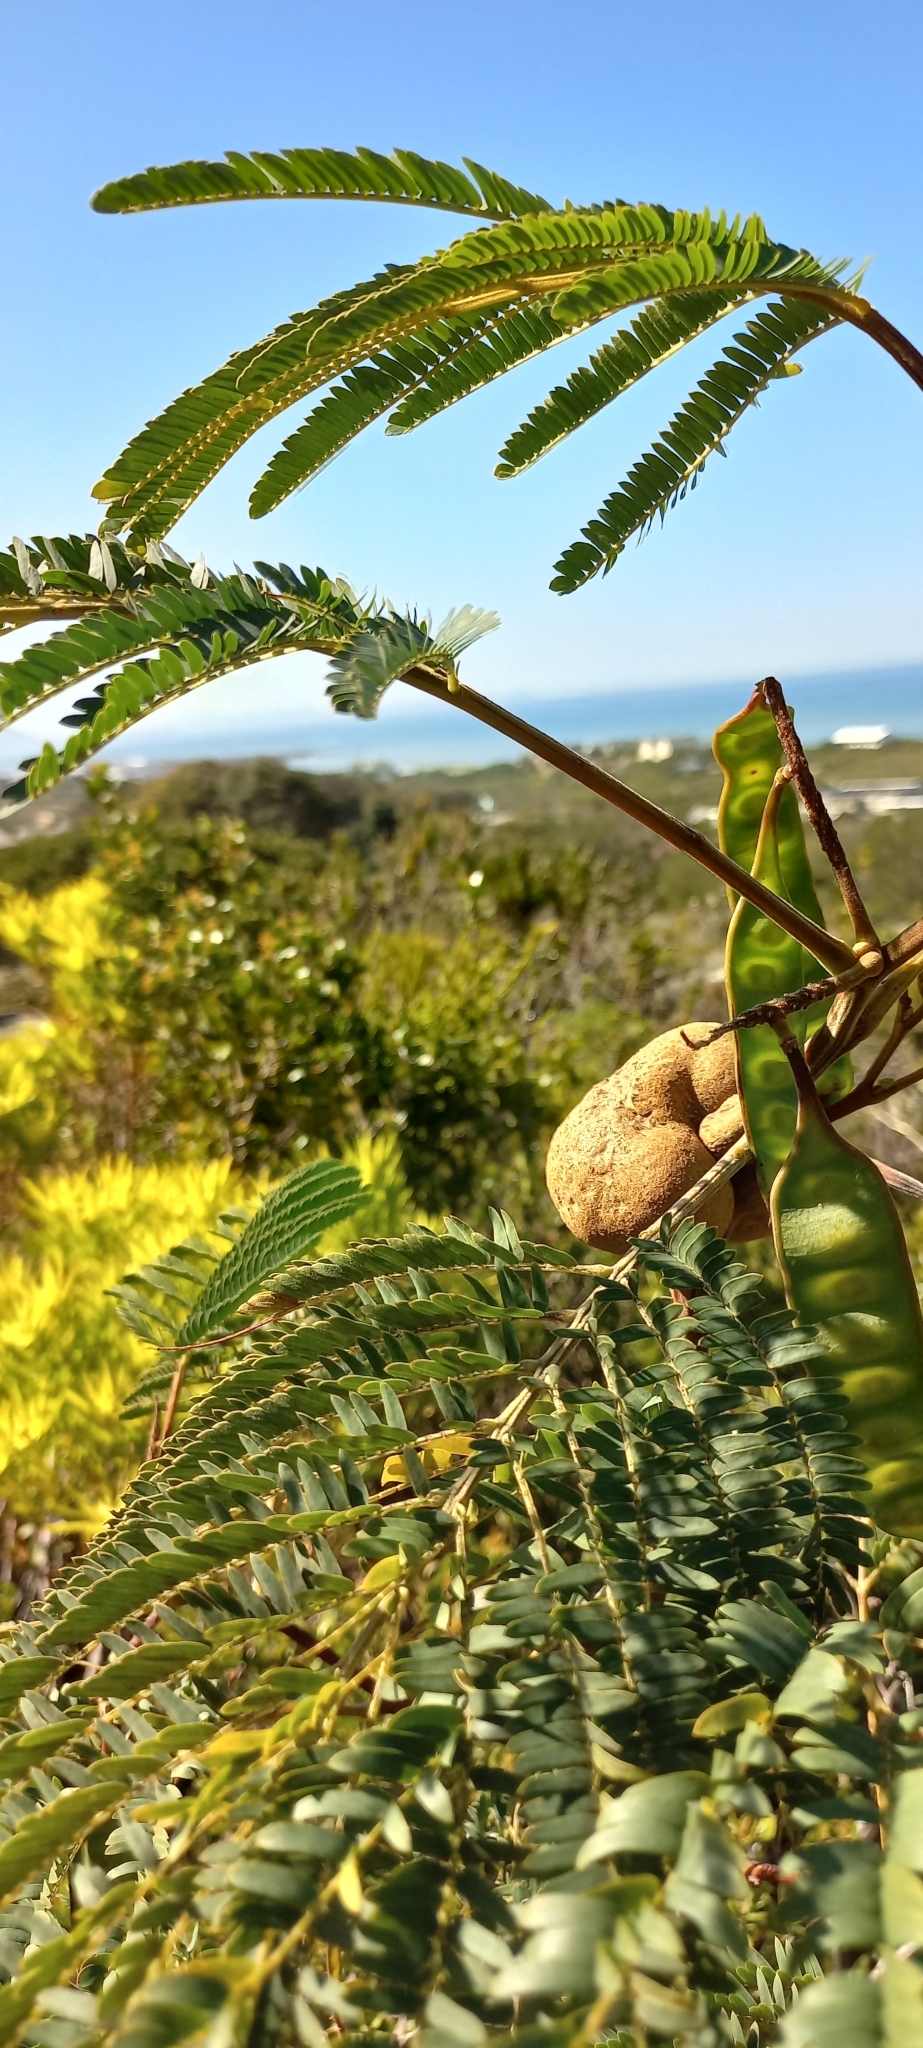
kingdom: Plantae
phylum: Tracheophyta
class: Magnoliopsida
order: Fabales
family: Fabaceae
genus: Paraserianthes
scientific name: Paraserianthes lophantha
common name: Plume albizia
